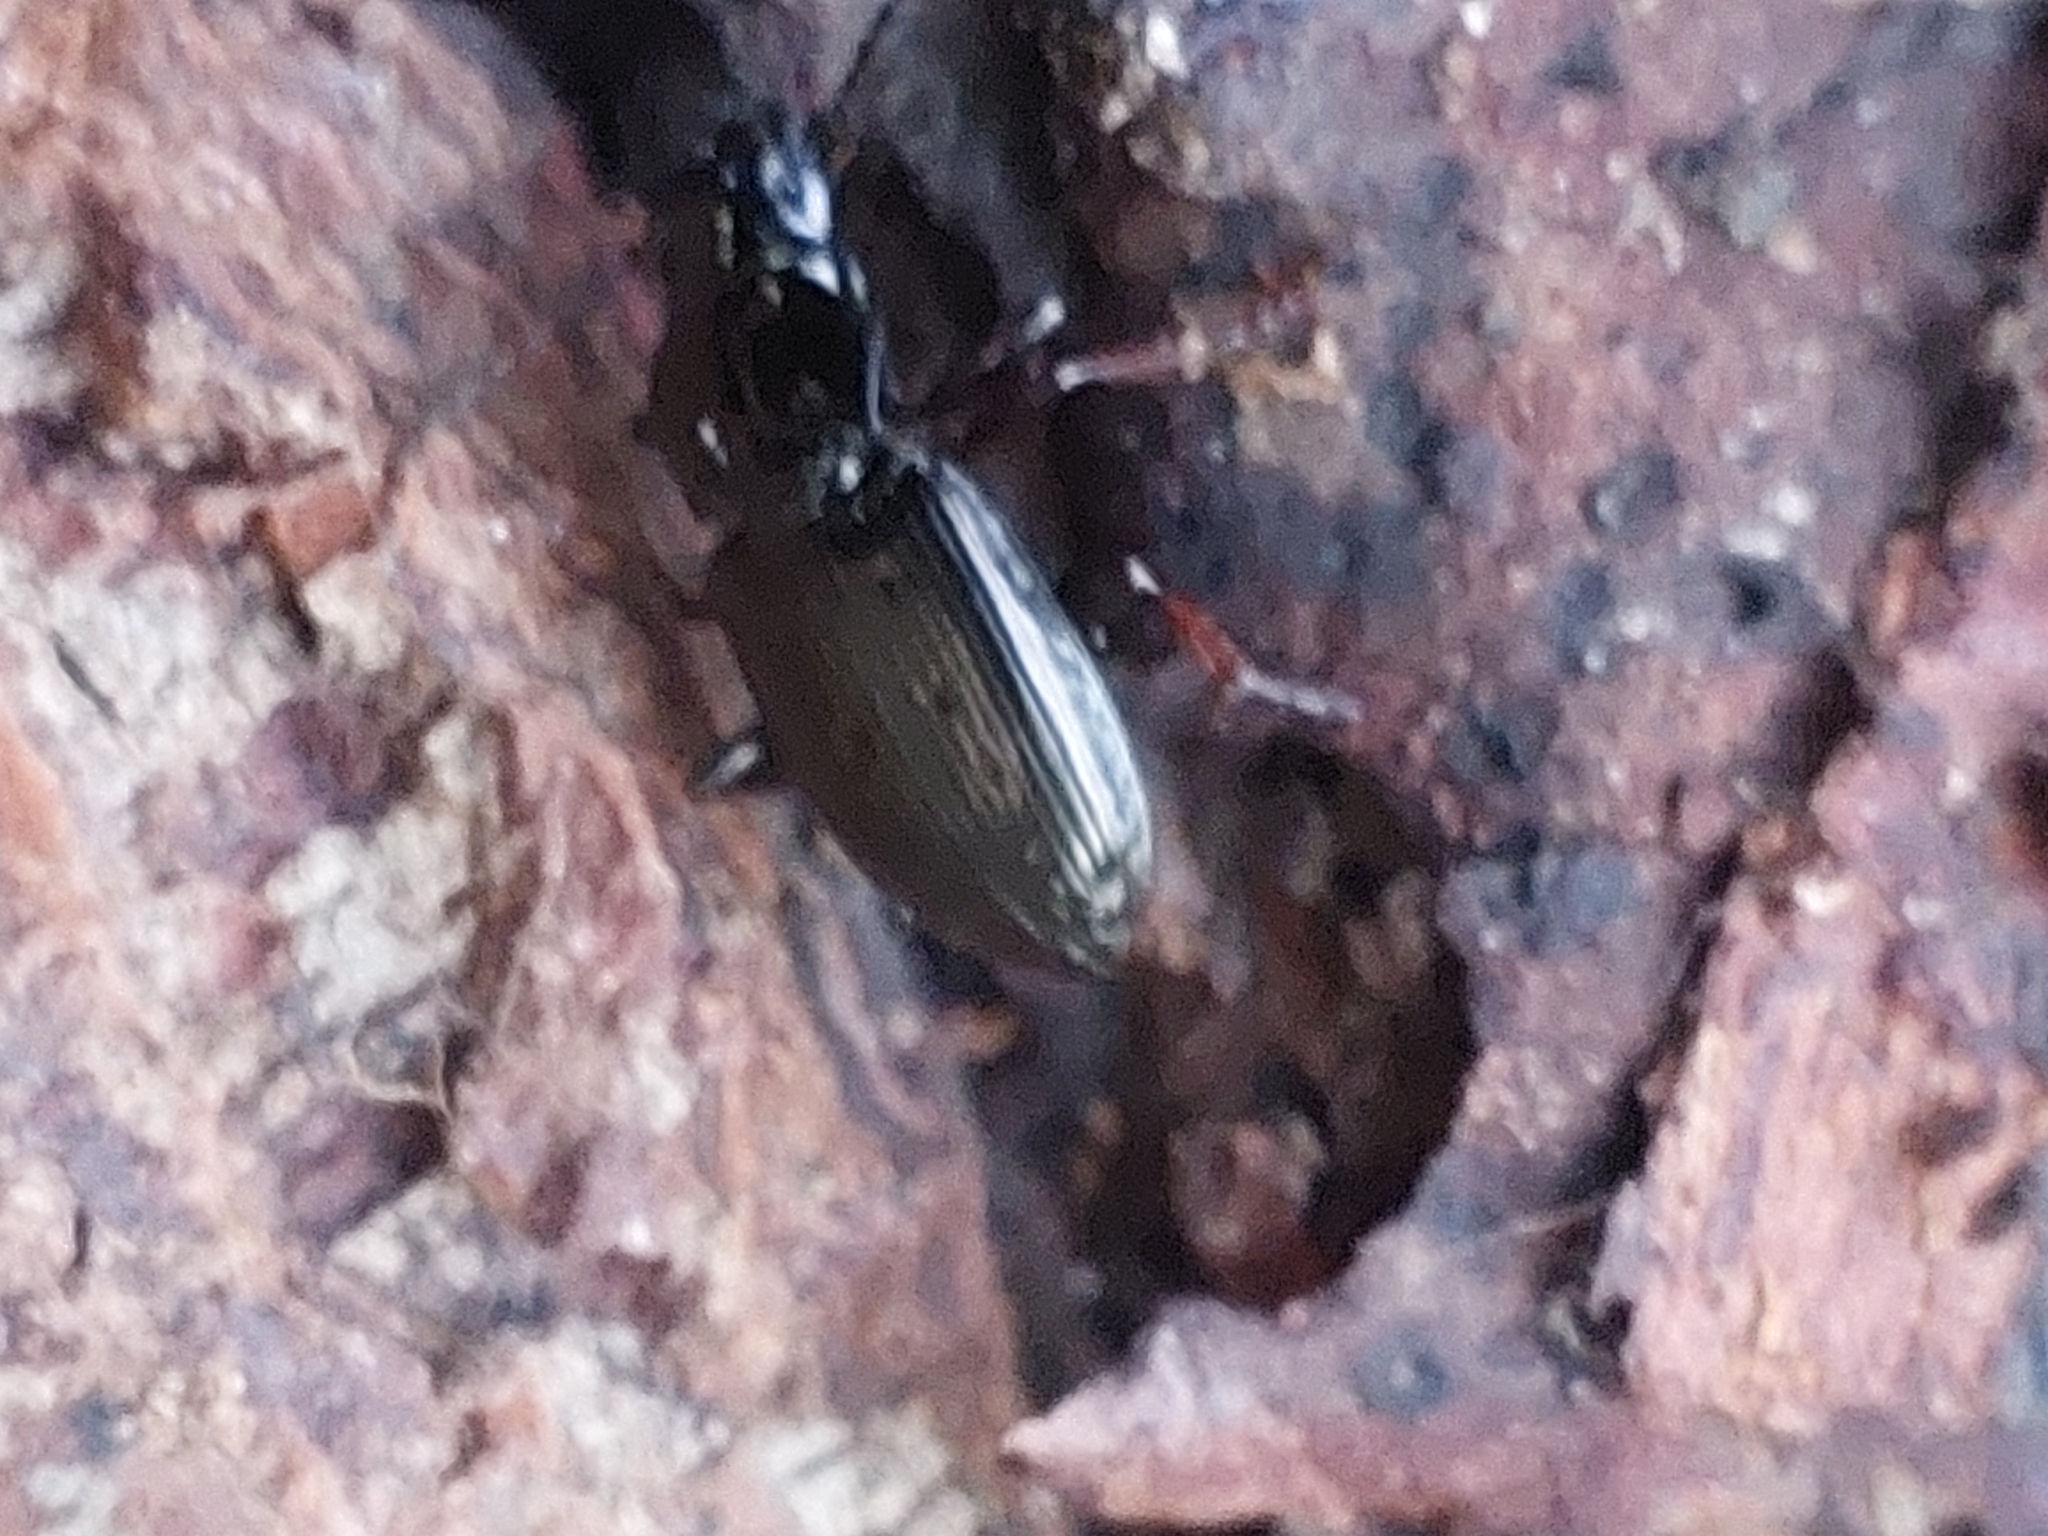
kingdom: Animalia
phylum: Arthropoda
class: Insecta
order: Coleoptera
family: Carabidae
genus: Pterostichus
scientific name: Pterostichus oblongopunctatus
